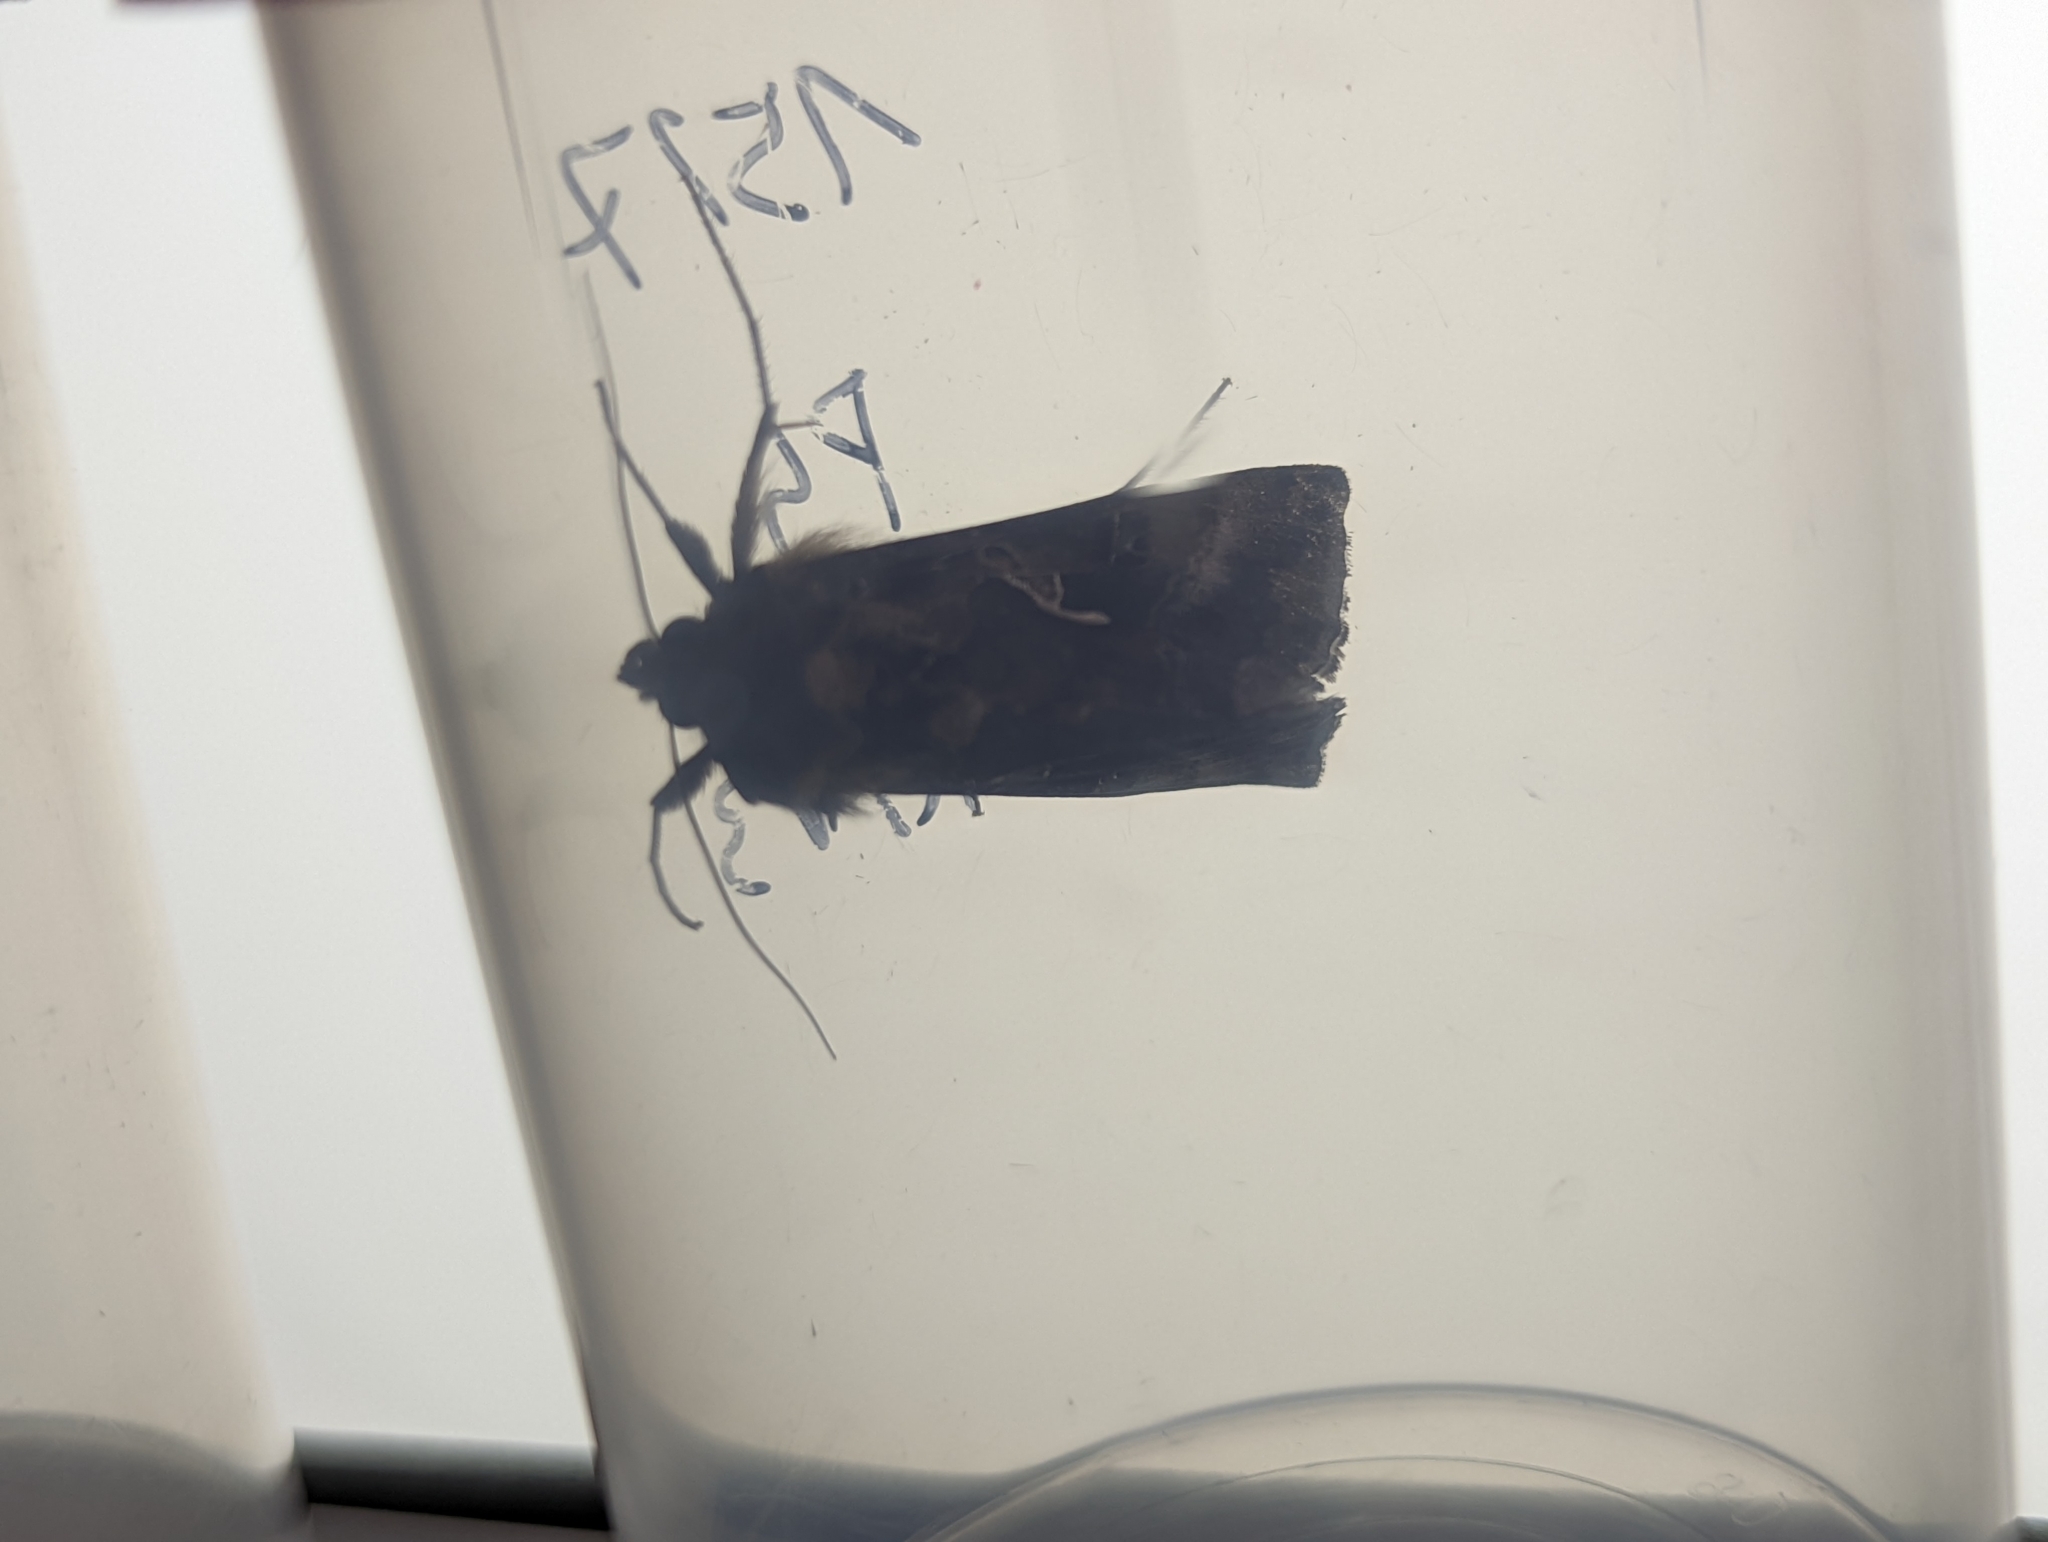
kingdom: Animalia
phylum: Arthropoda
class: Insecta
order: Lepidoptera
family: Noctuidae
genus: Autographa
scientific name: Autographa gamma
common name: Silver y
